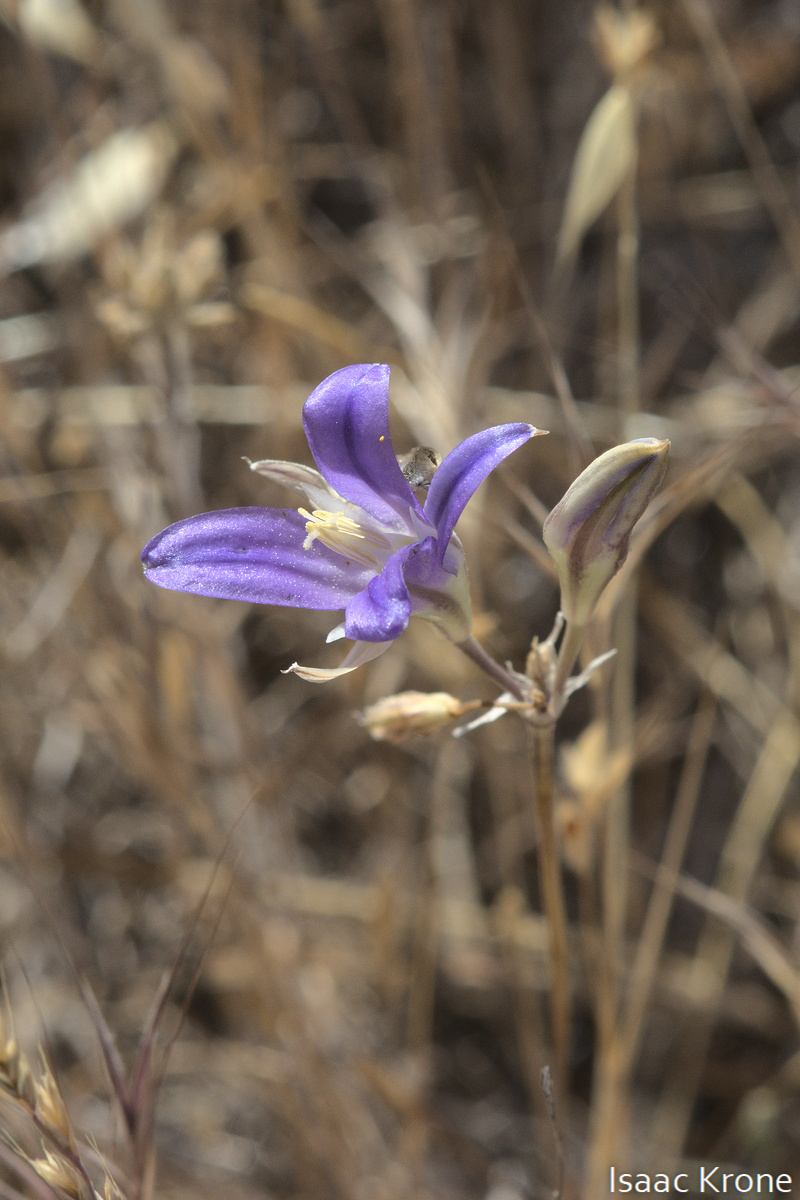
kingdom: Plantae
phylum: Tracheophyta
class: Liliopsida
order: Asparagales
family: Asparagaceae
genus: Brodiaea
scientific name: Brodiaea elegans
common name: Elegant cluster-lily
